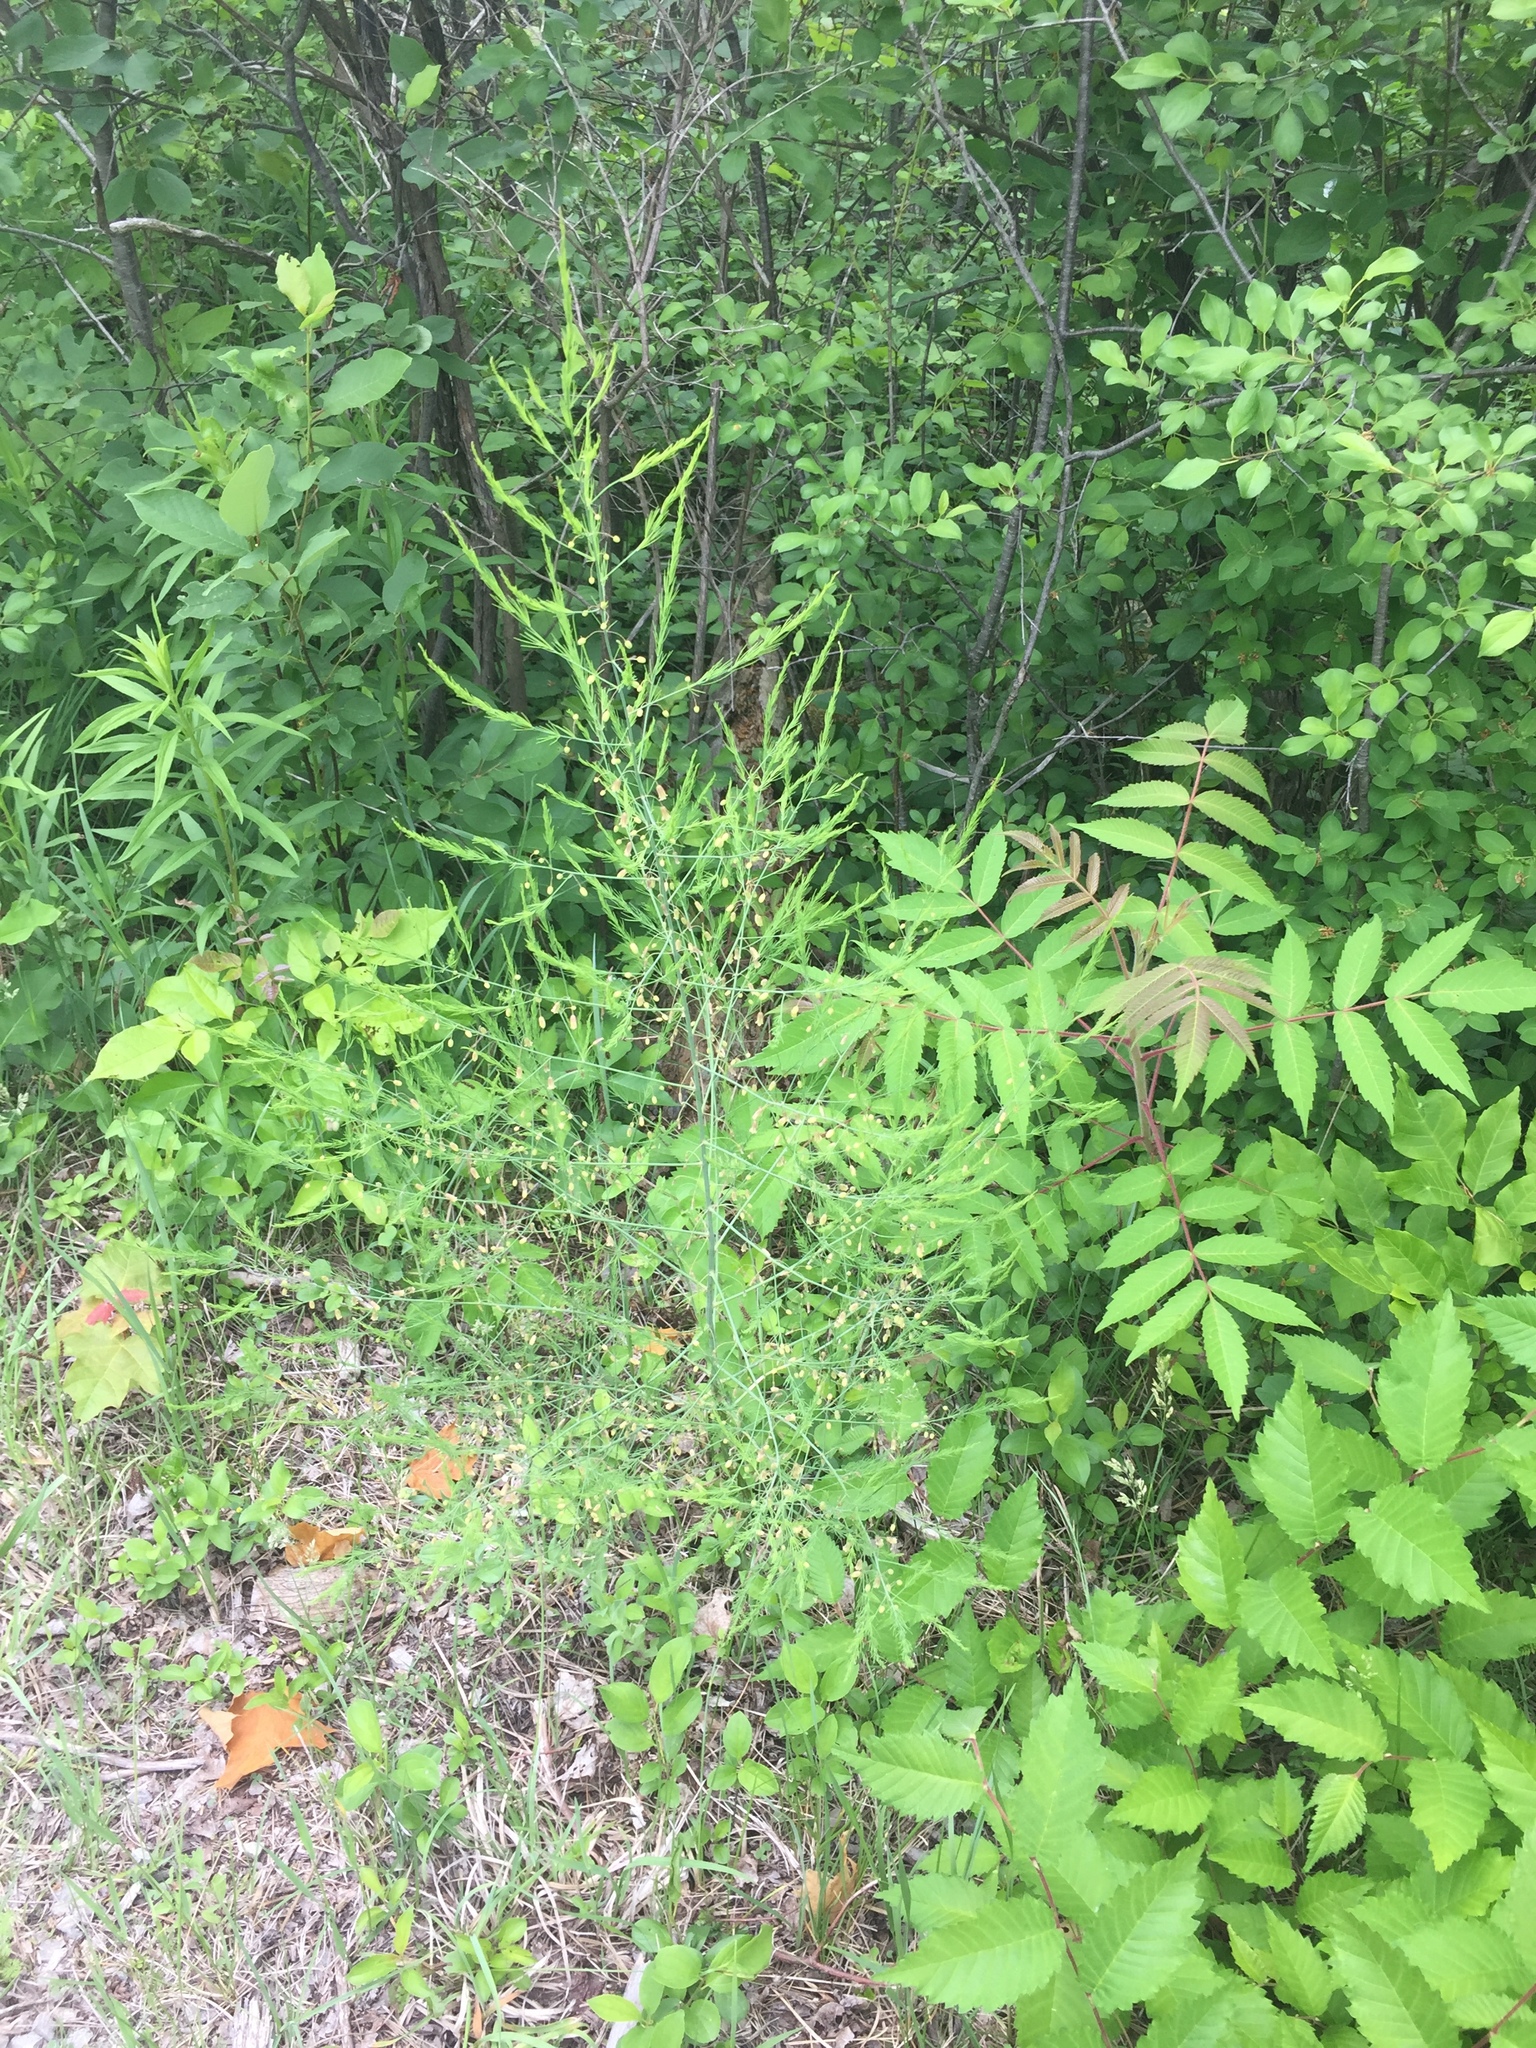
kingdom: Plantae
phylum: Tracheophyta
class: Liliopsida
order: Asparagales
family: Asparagaceae
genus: Asparagus
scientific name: Asparagus officinalis
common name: Garden asparagus
